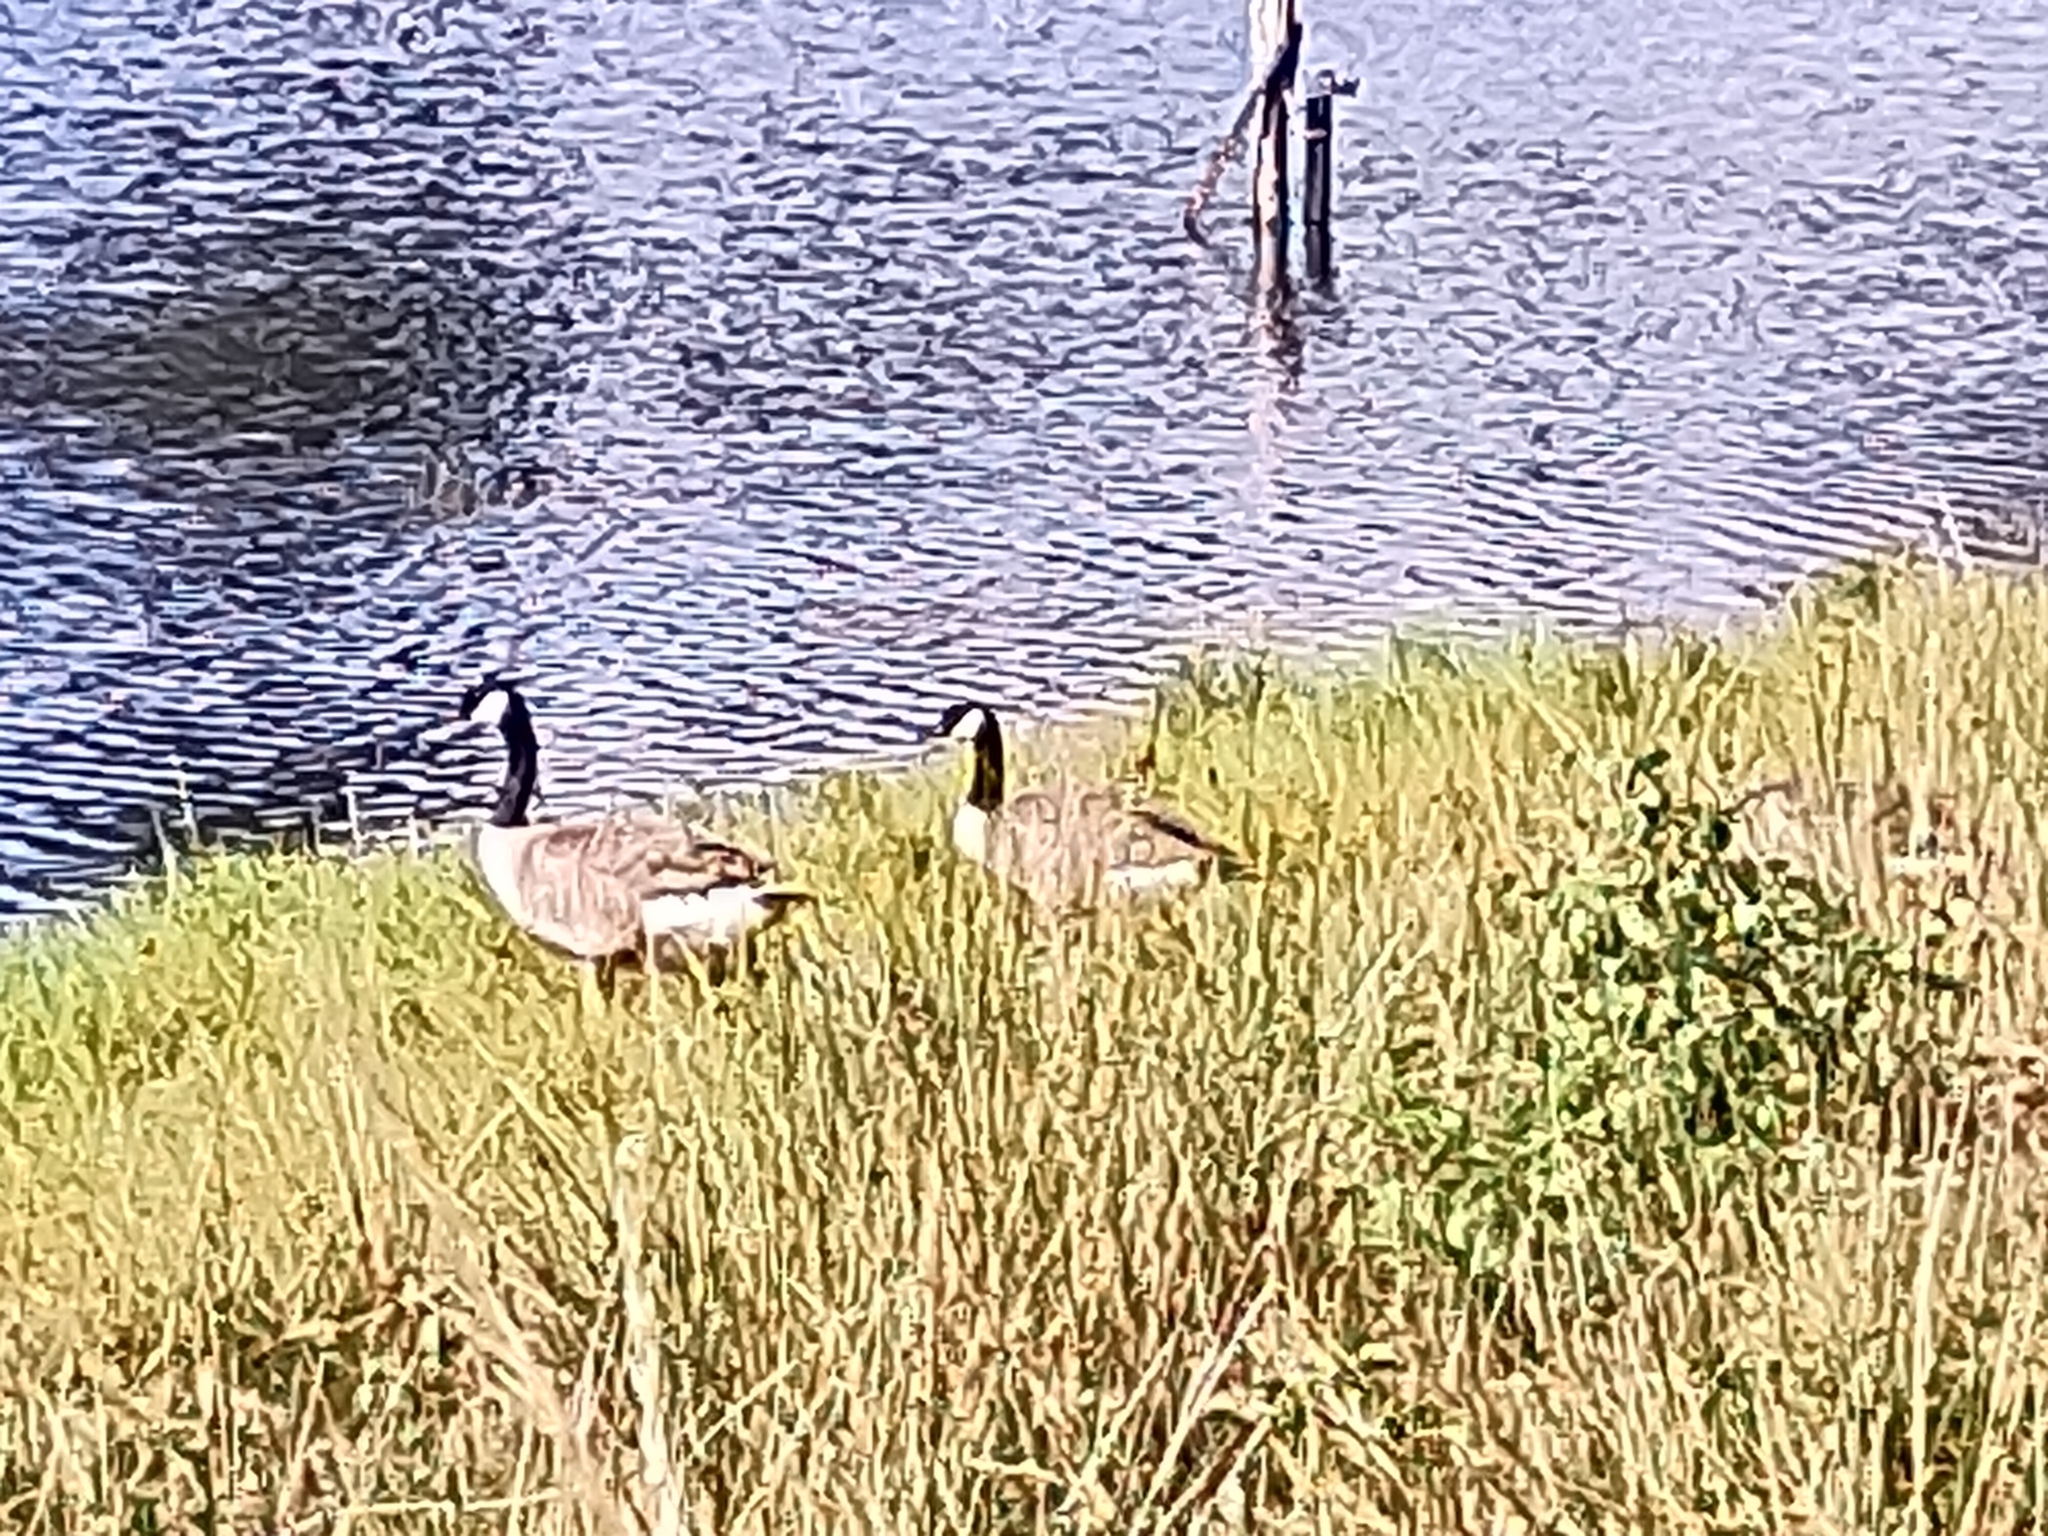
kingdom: Animalia
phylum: Chordata
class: Aves
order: Anseriformes
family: Anatidae
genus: Branta
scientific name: Branta canadensis
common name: Canada goose
